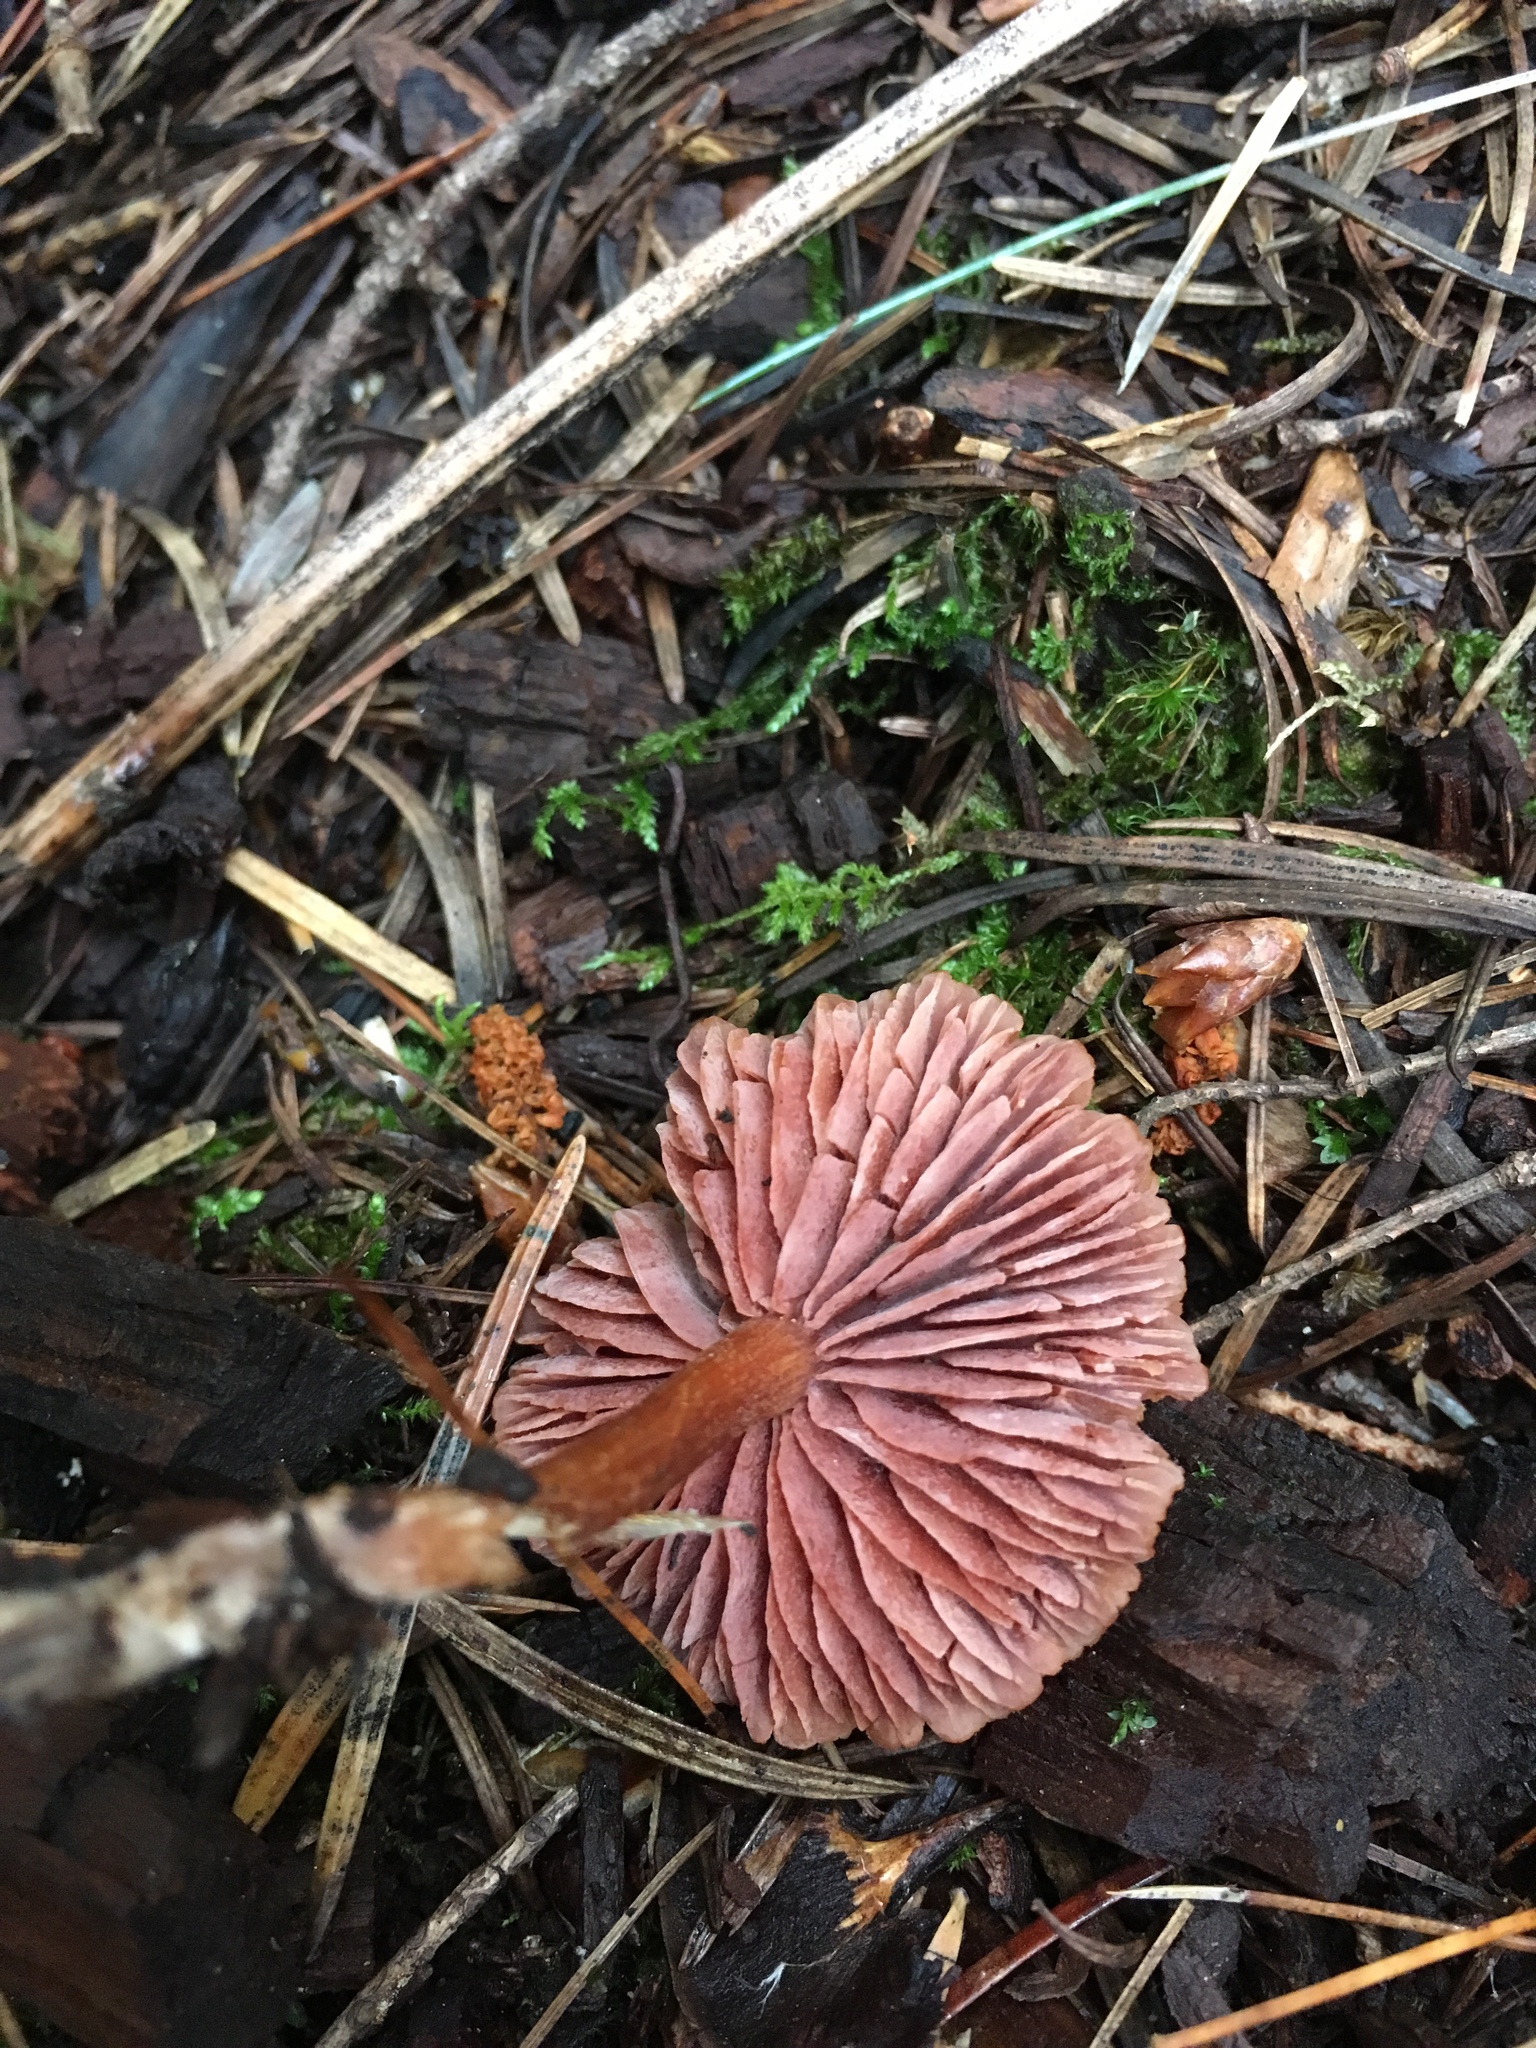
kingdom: Fungi
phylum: Basidiomycota
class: Agaricomycetes
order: Agaricales
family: Hydnangiaceae
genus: Laccaria
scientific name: Laccaria laccata
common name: Deceiver
